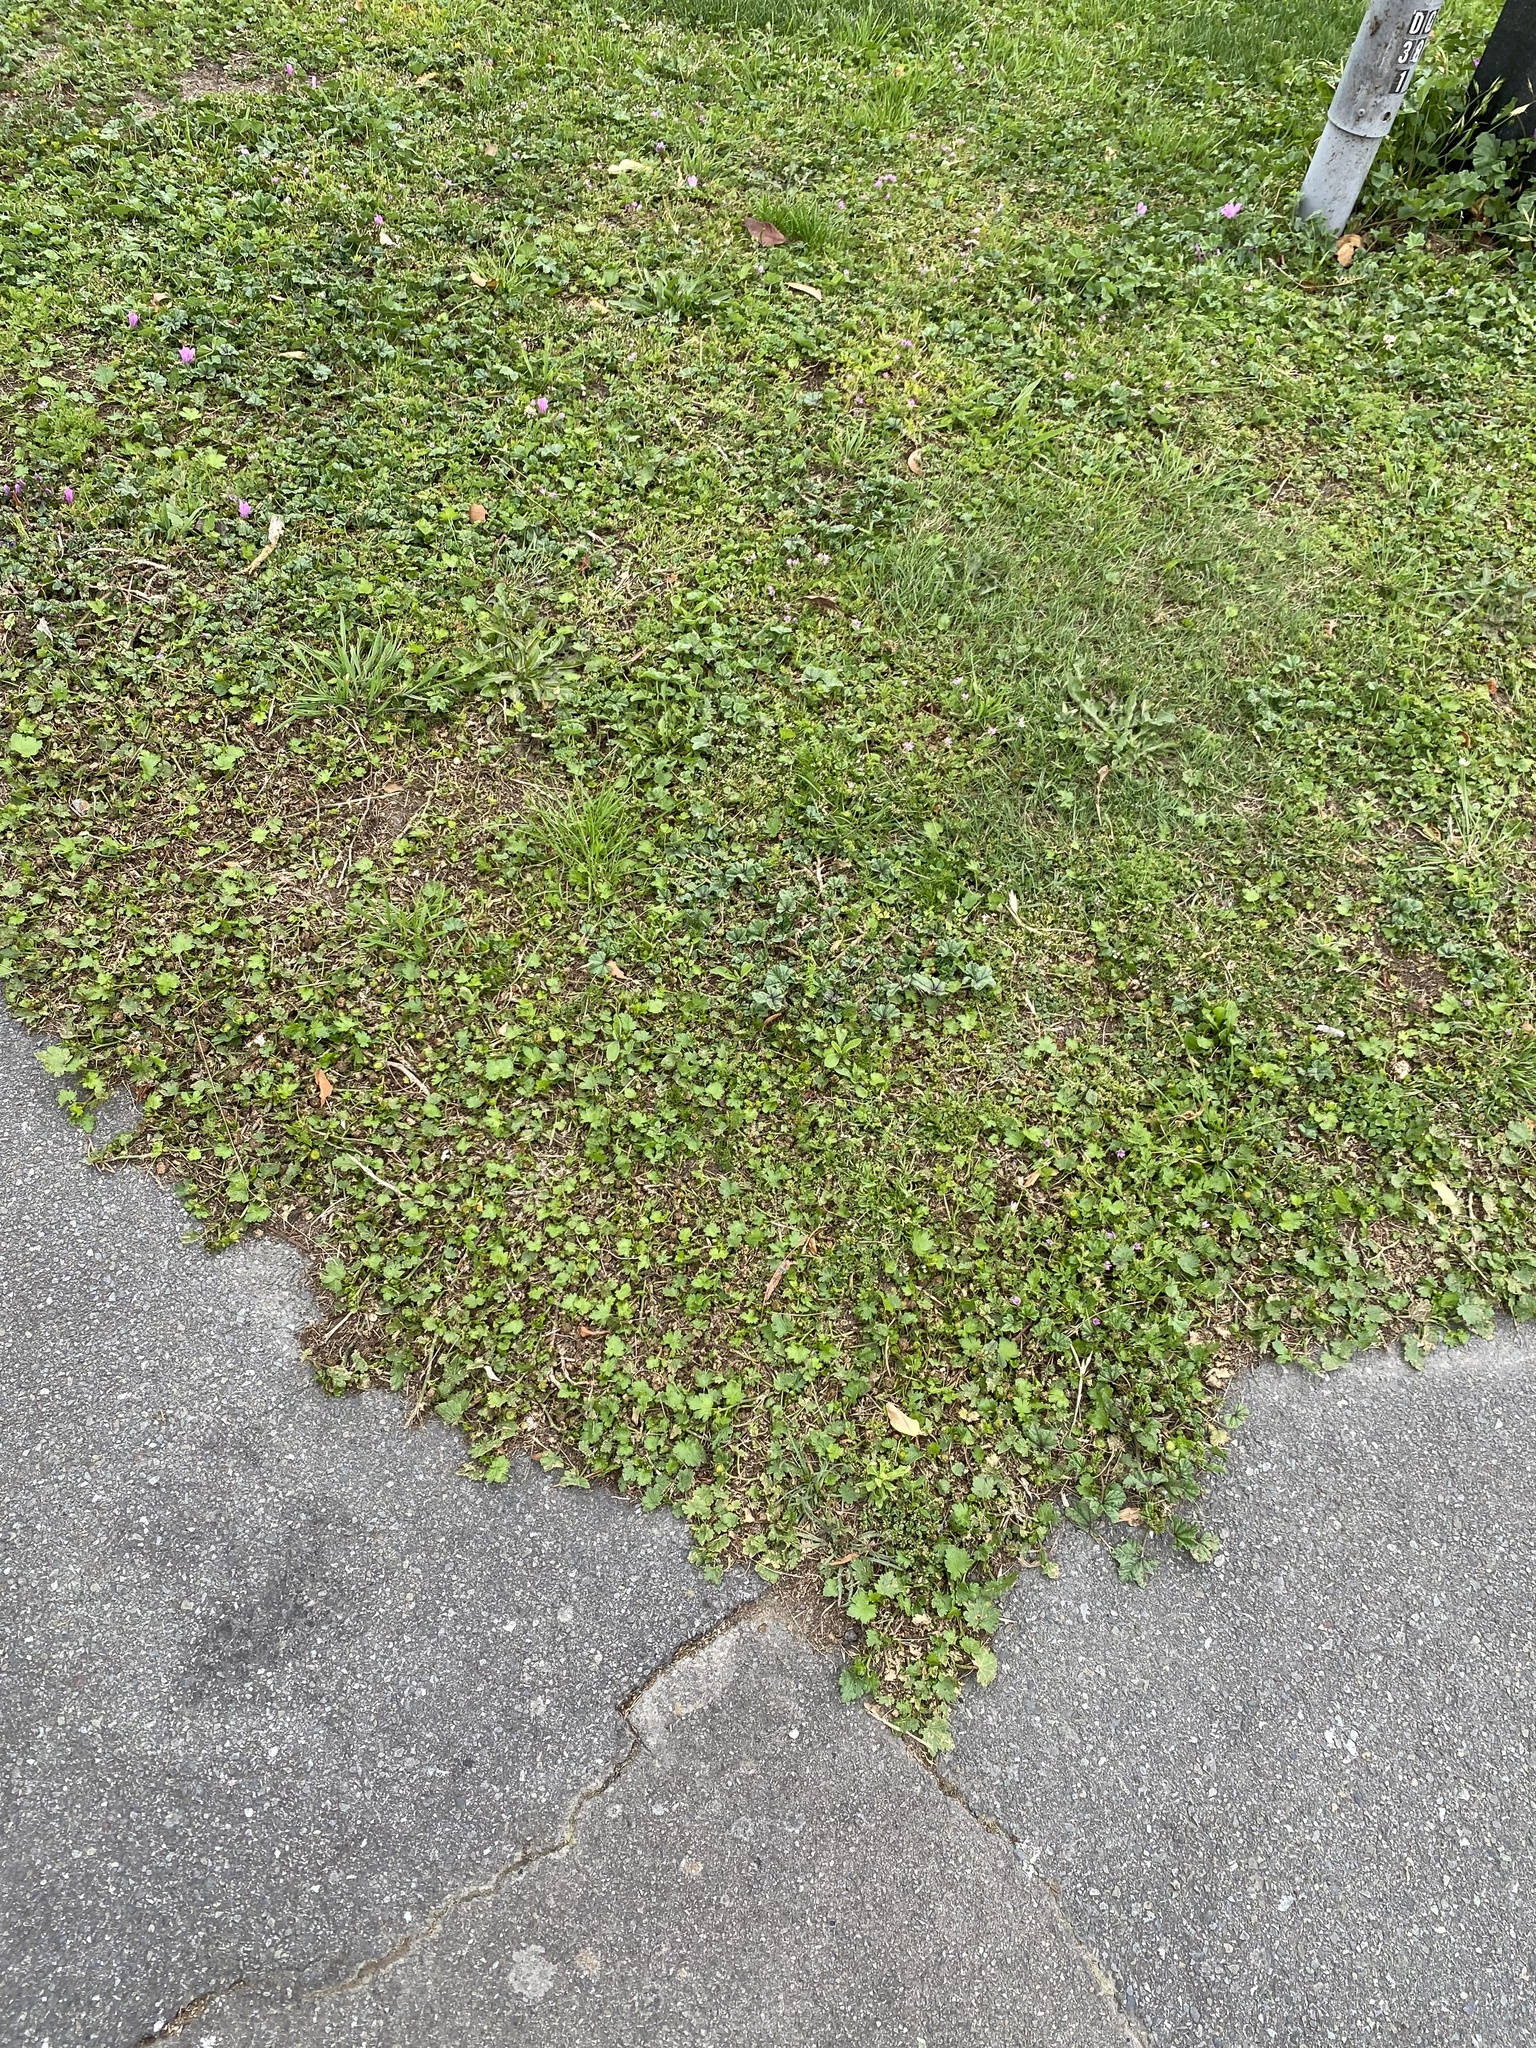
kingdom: Plantae
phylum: Tracheophyta
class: Magnoliopsida
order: Malvales
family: Malvaceae
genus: Modiola
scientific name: Modiola caroliniana
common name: Carolina bristlemallow
